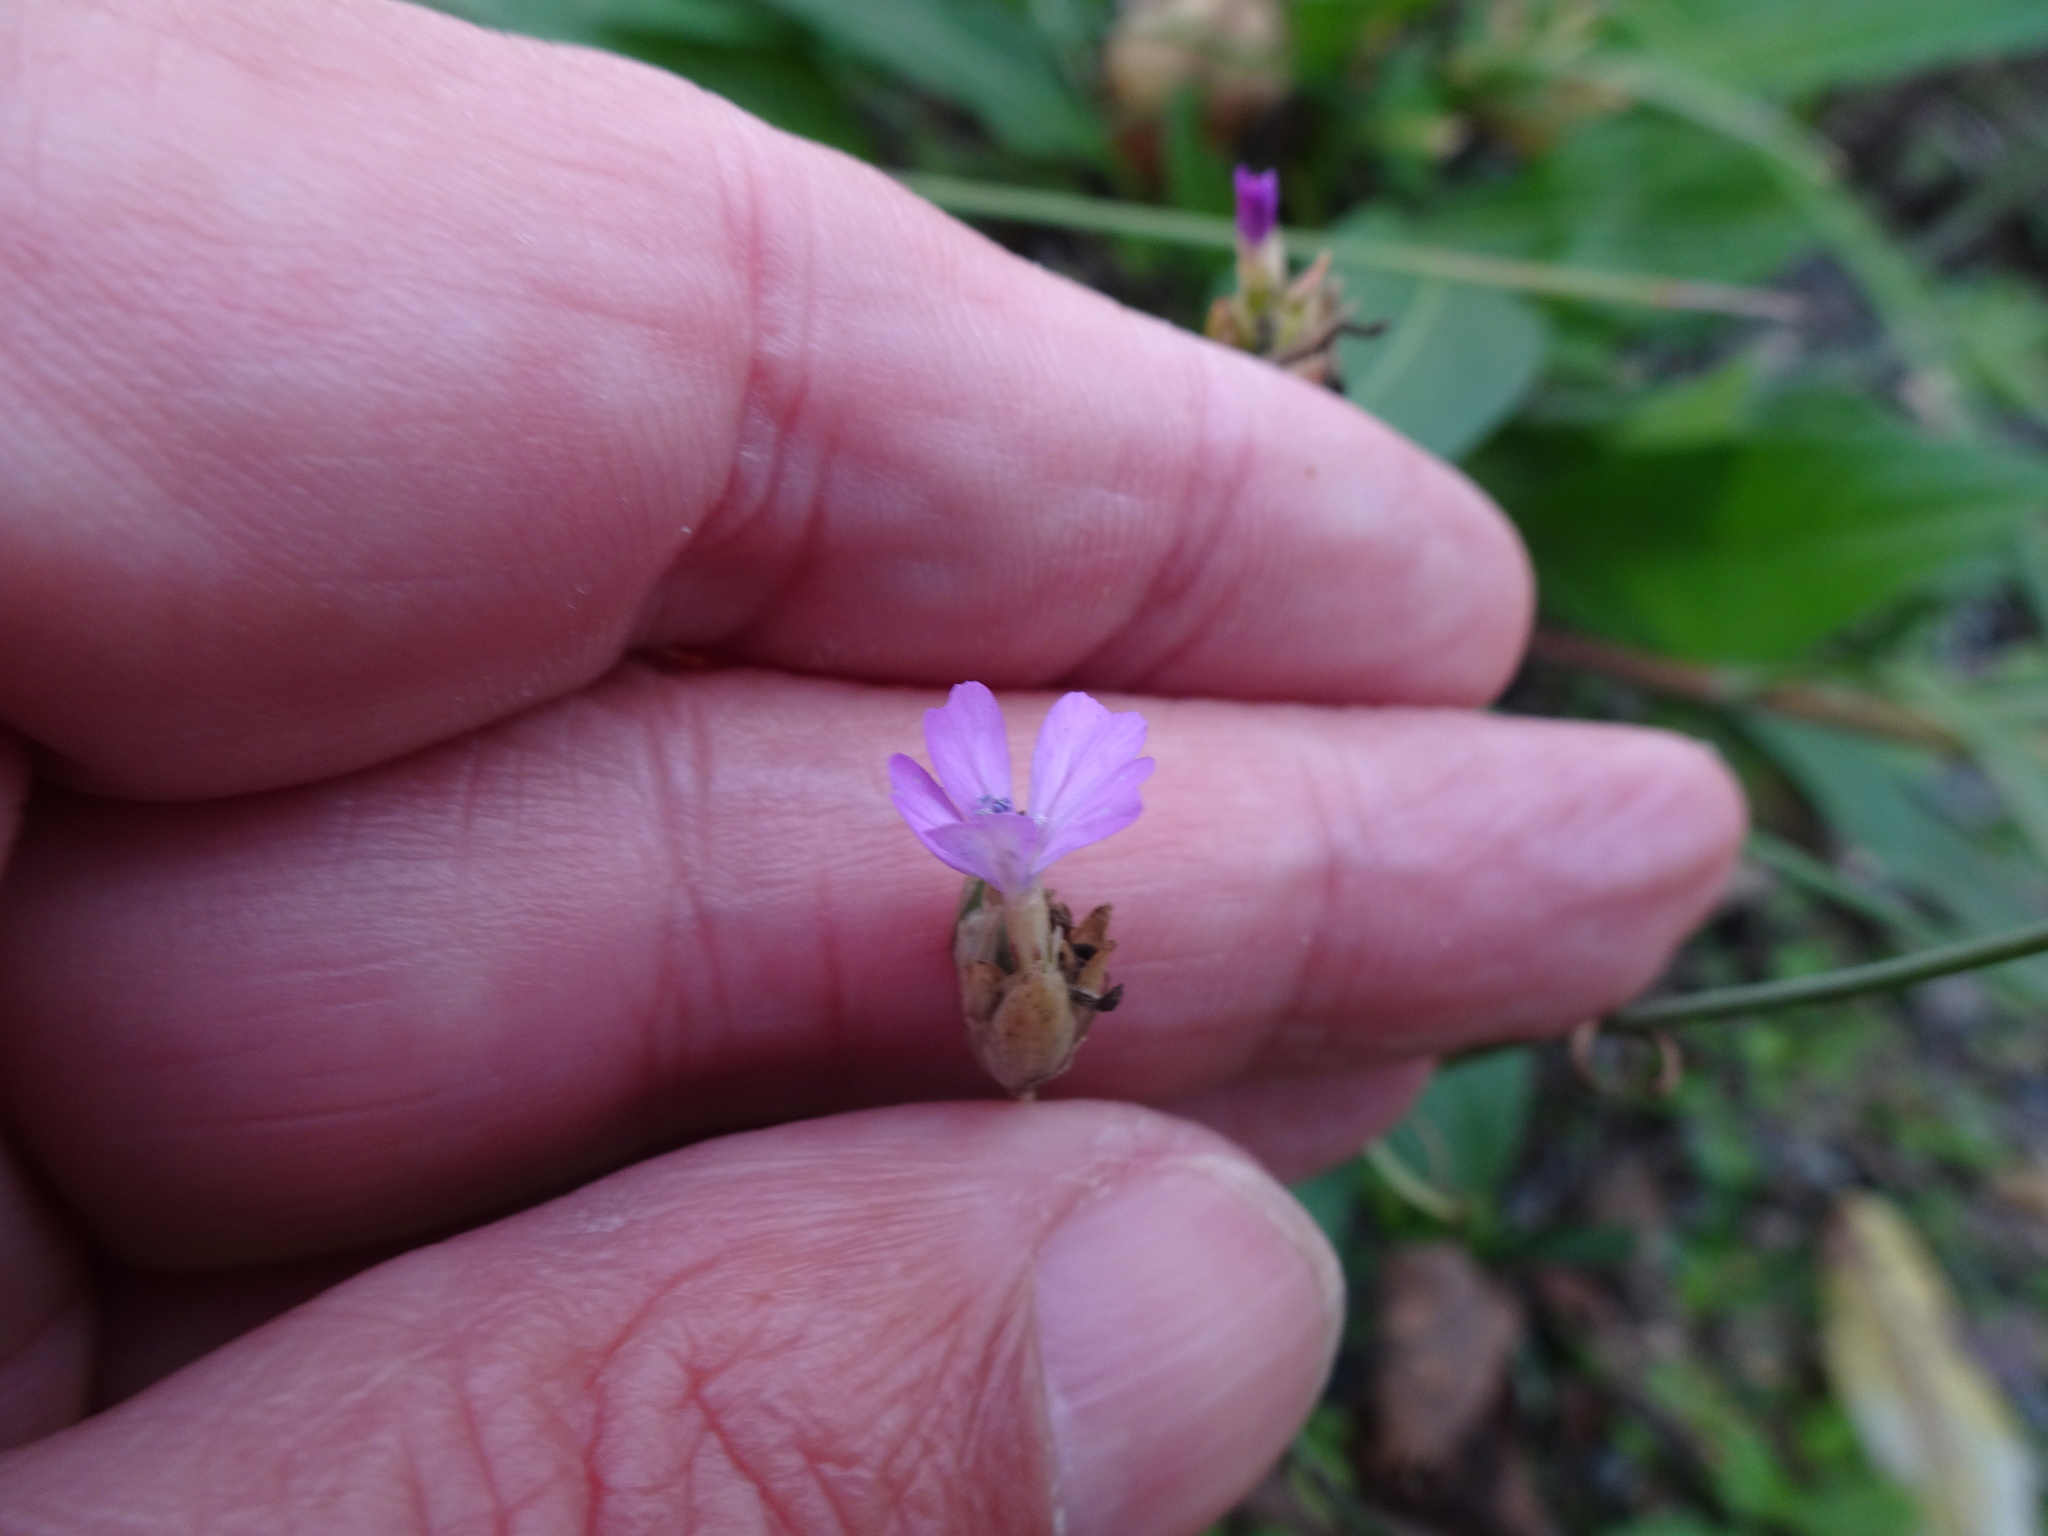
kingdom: Plantae
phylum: Tracheophyta
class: Magnoliopsida
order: Caryophyllales
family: Caryophyllaceae
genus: Petrorhagia
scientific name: Petrorhagia prolifera
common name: Proliferous pink
